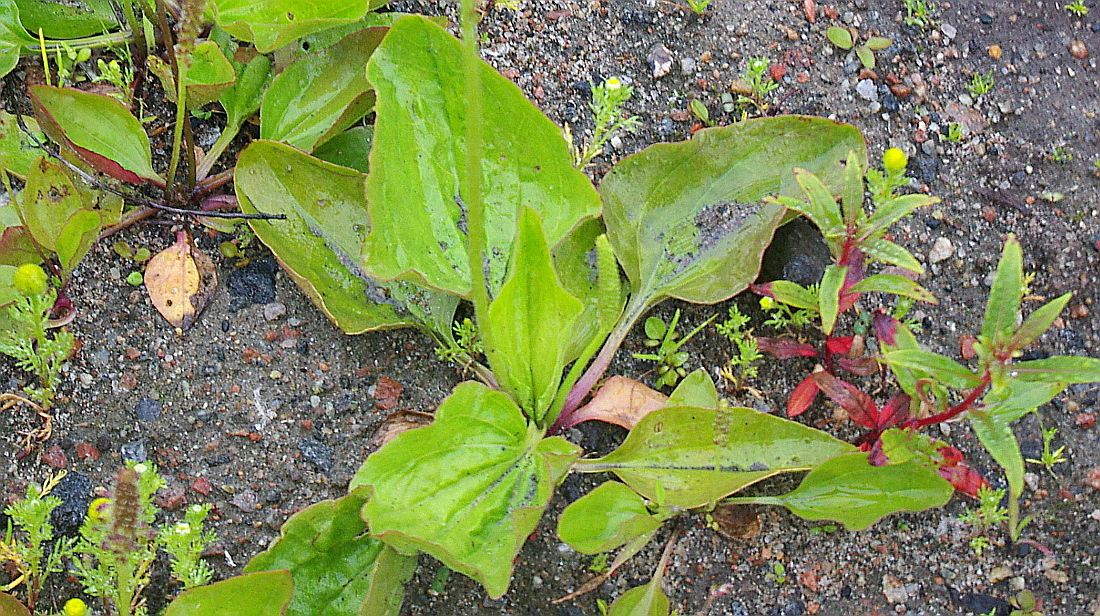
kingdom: Plantae
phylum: Tracheophyta
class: Magnoliopsida
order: Lamiales
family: Plantaginaceae
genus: Plantago
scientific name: Plantago major
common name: Common plantain
